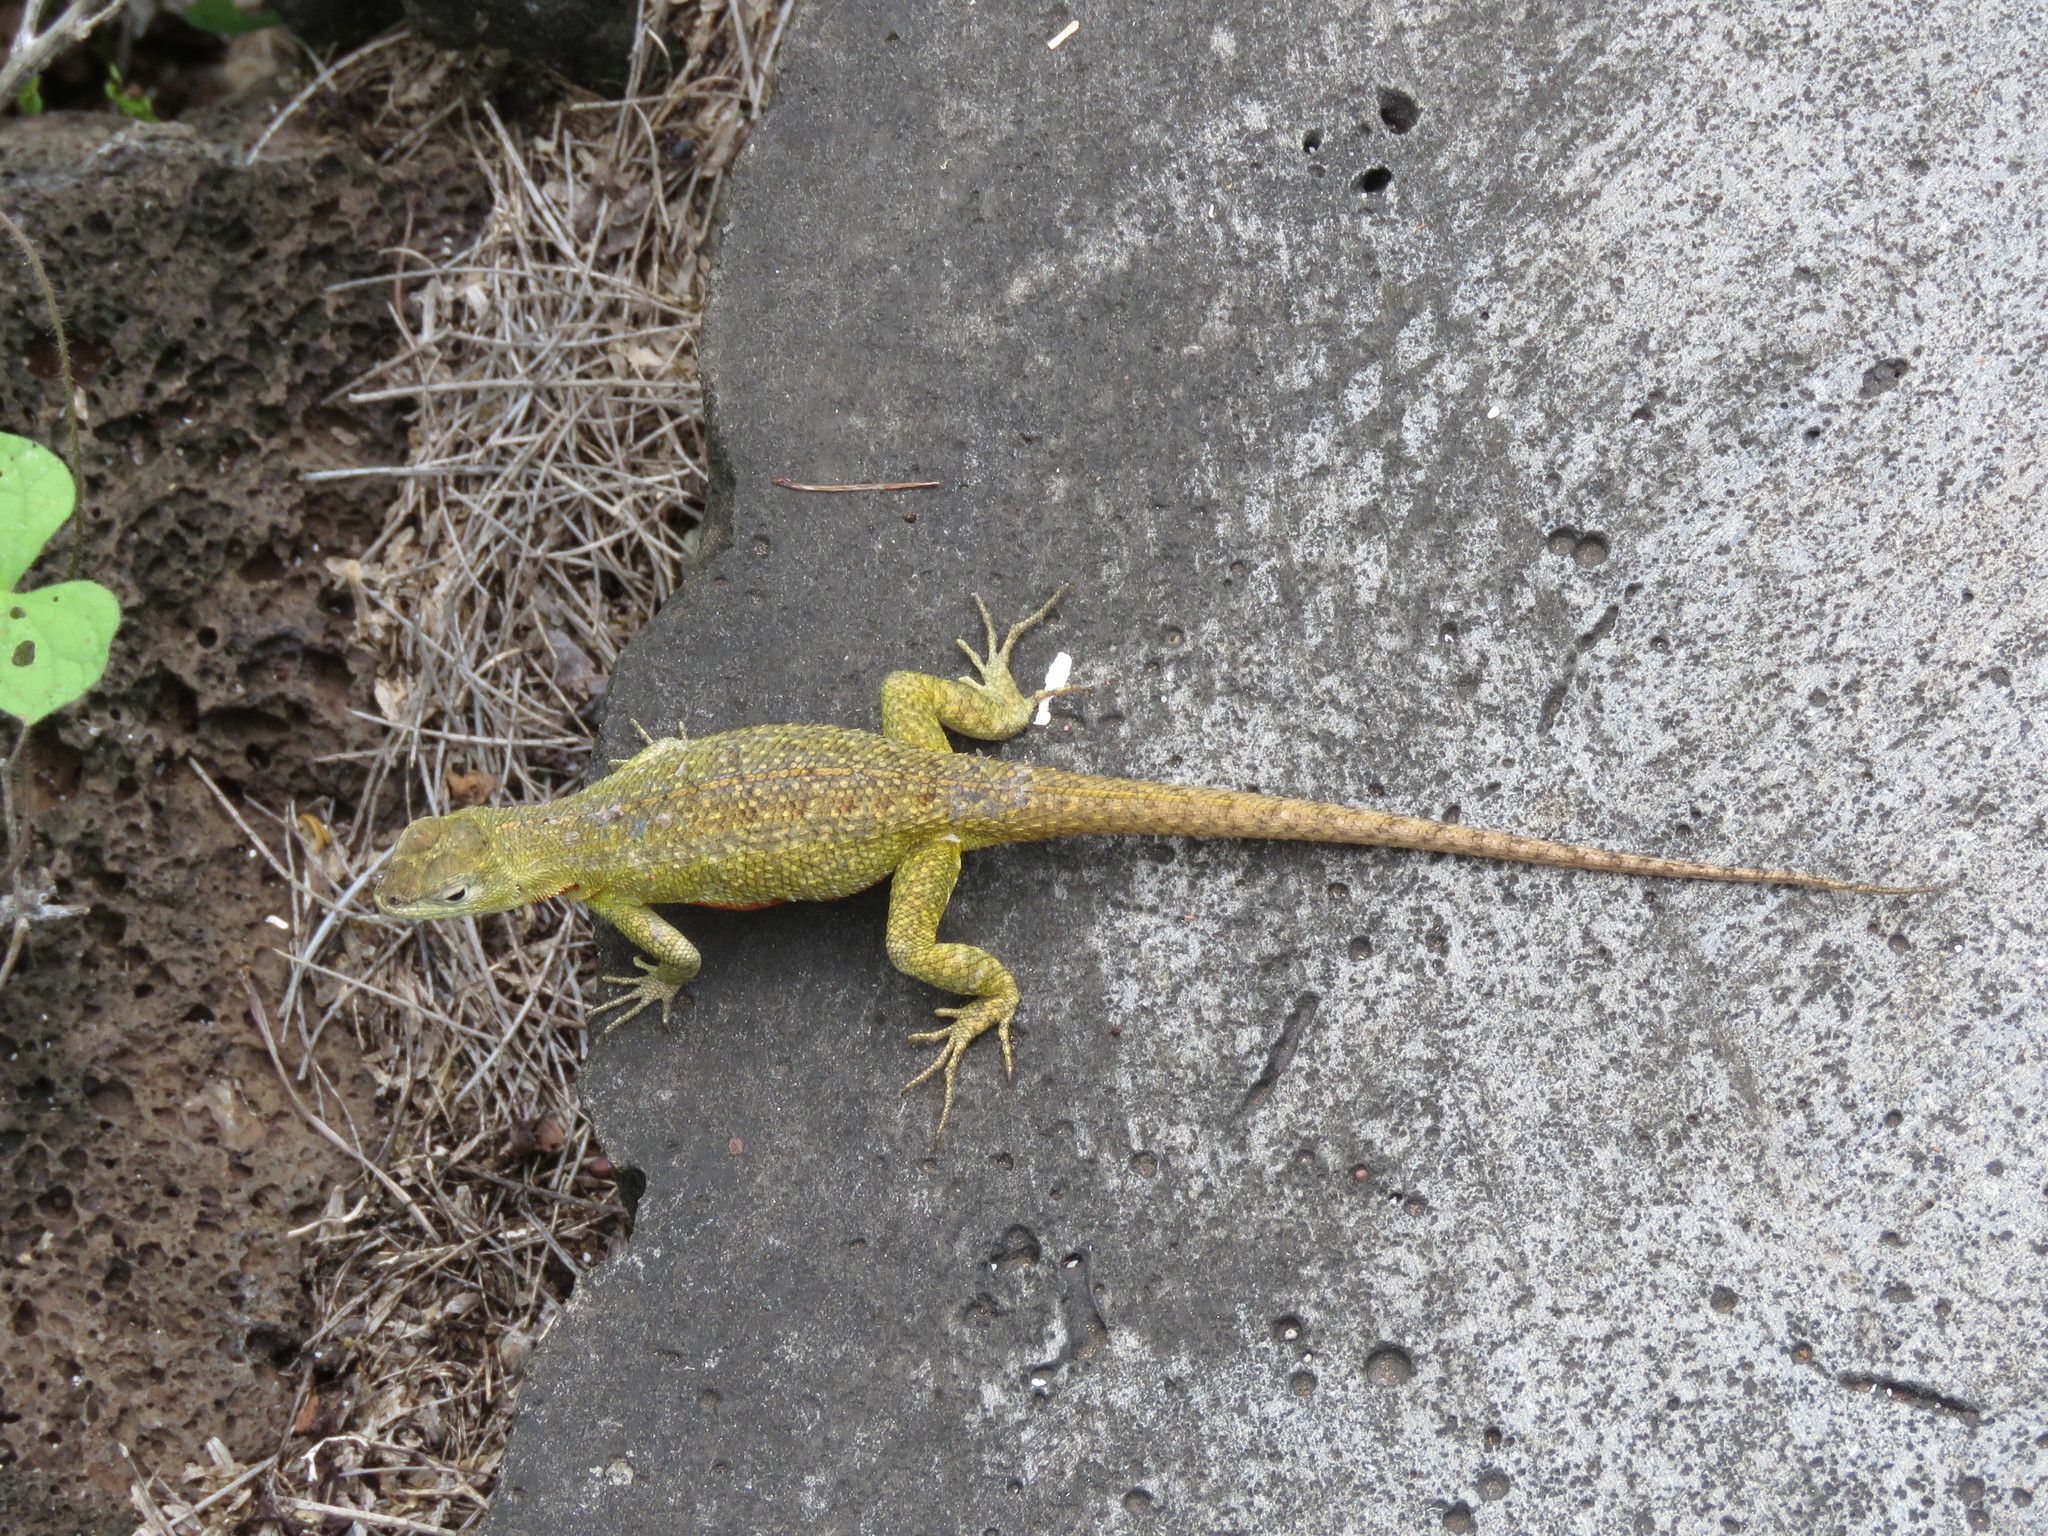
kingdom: Animalia
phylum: Chordata
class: Squamata
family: Tropiduridae
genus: Microlophus
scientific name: Microlophus bivittatus
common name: San cristobal lava lizard
